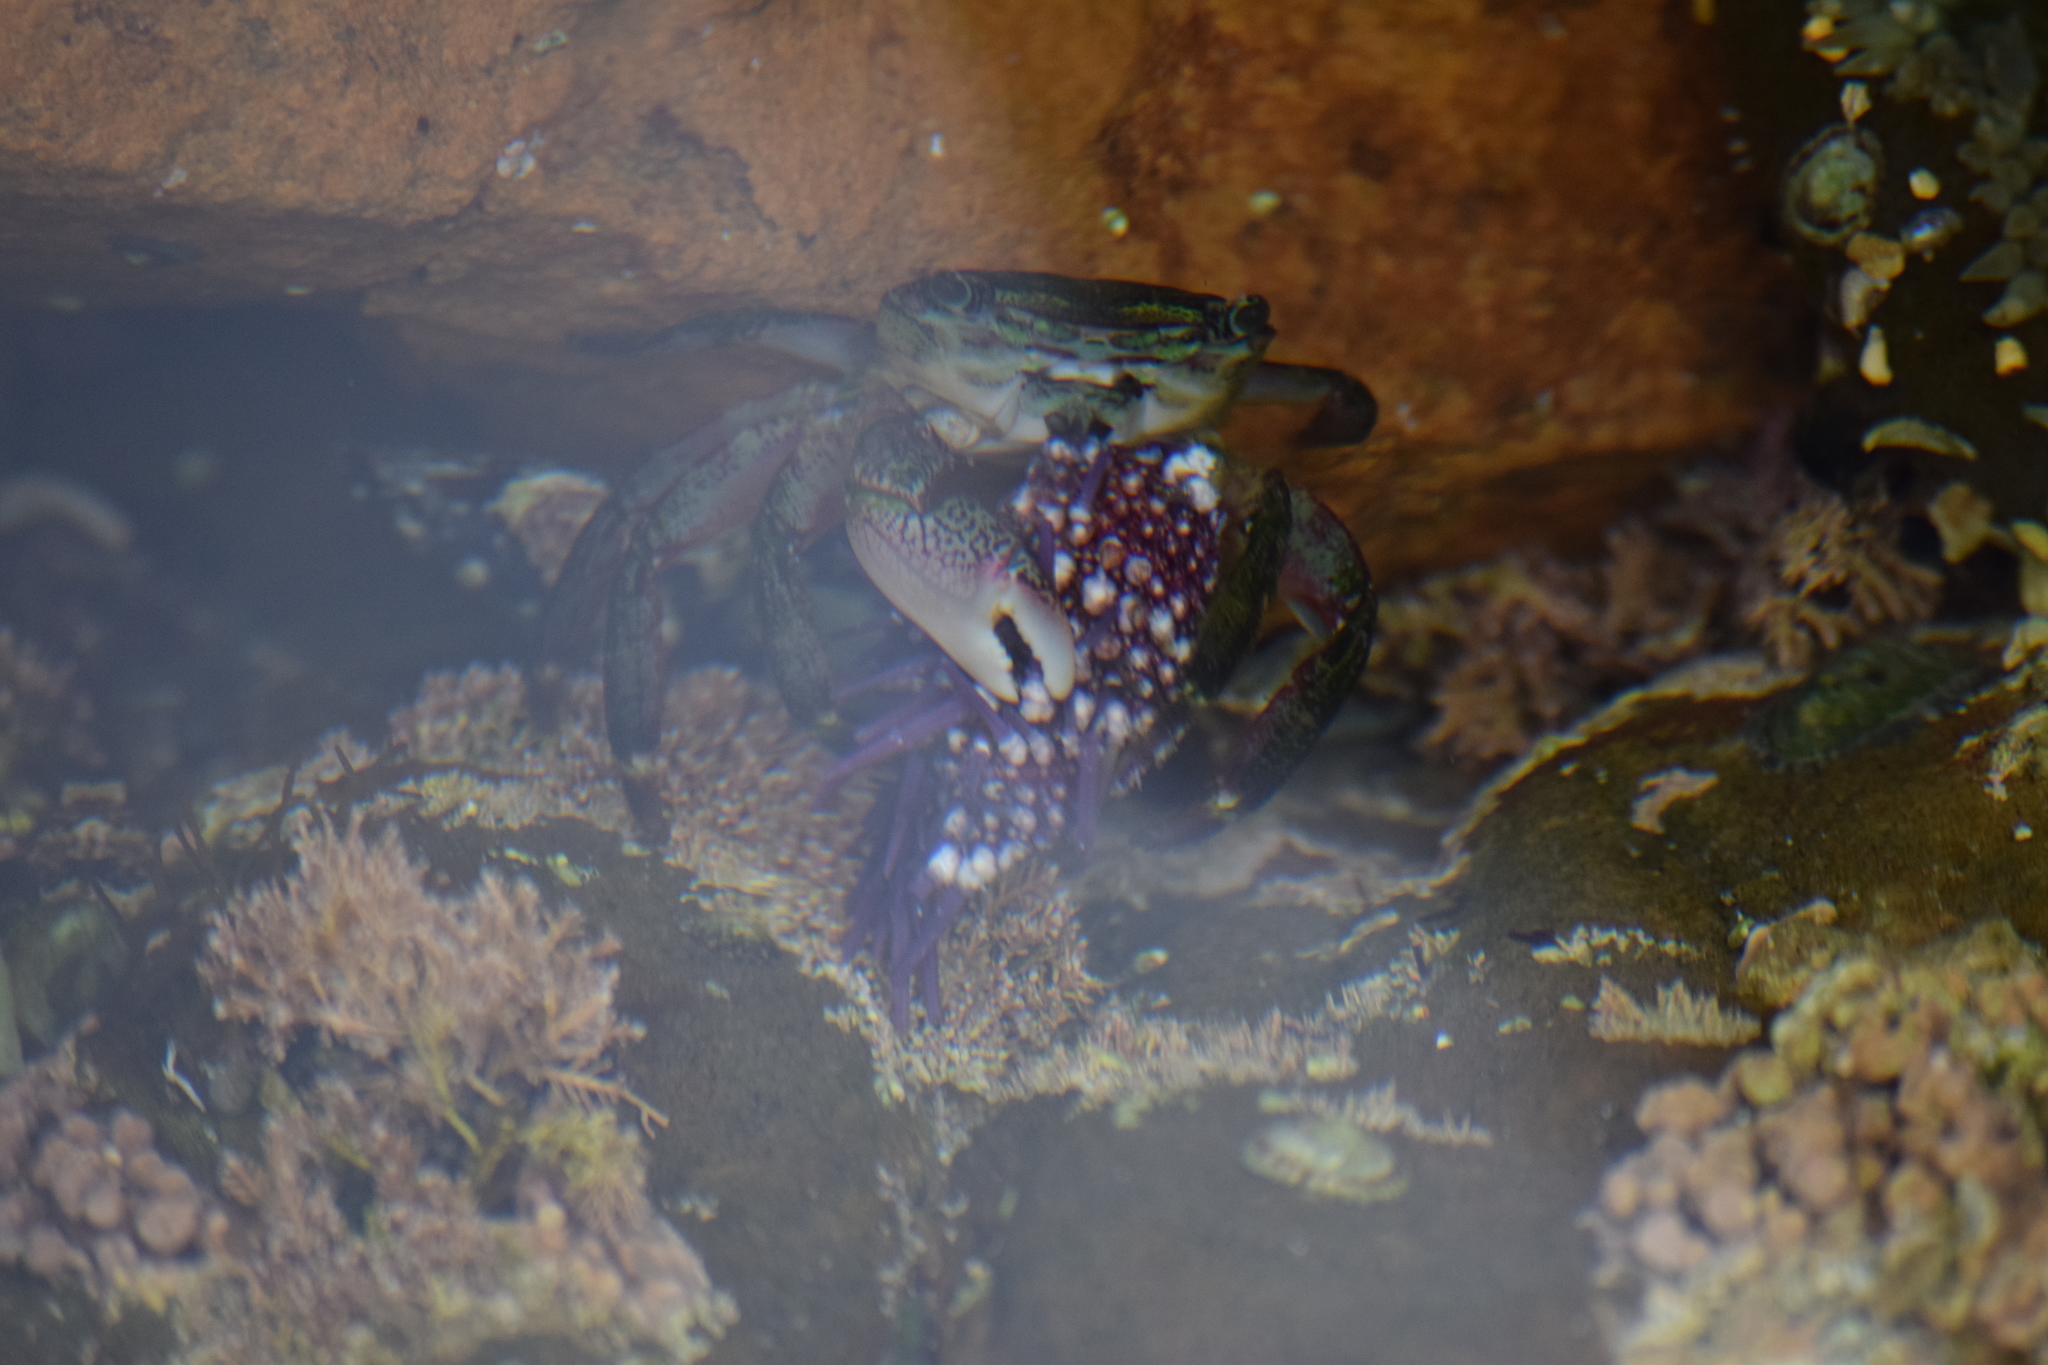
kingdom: Animalia
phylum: Arthropoda
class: Malacostraca
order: Decapoda
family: Grapsidae
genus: Pachygrapsus
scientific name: Pachygrapsus crassipes
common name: Striped shore crab
